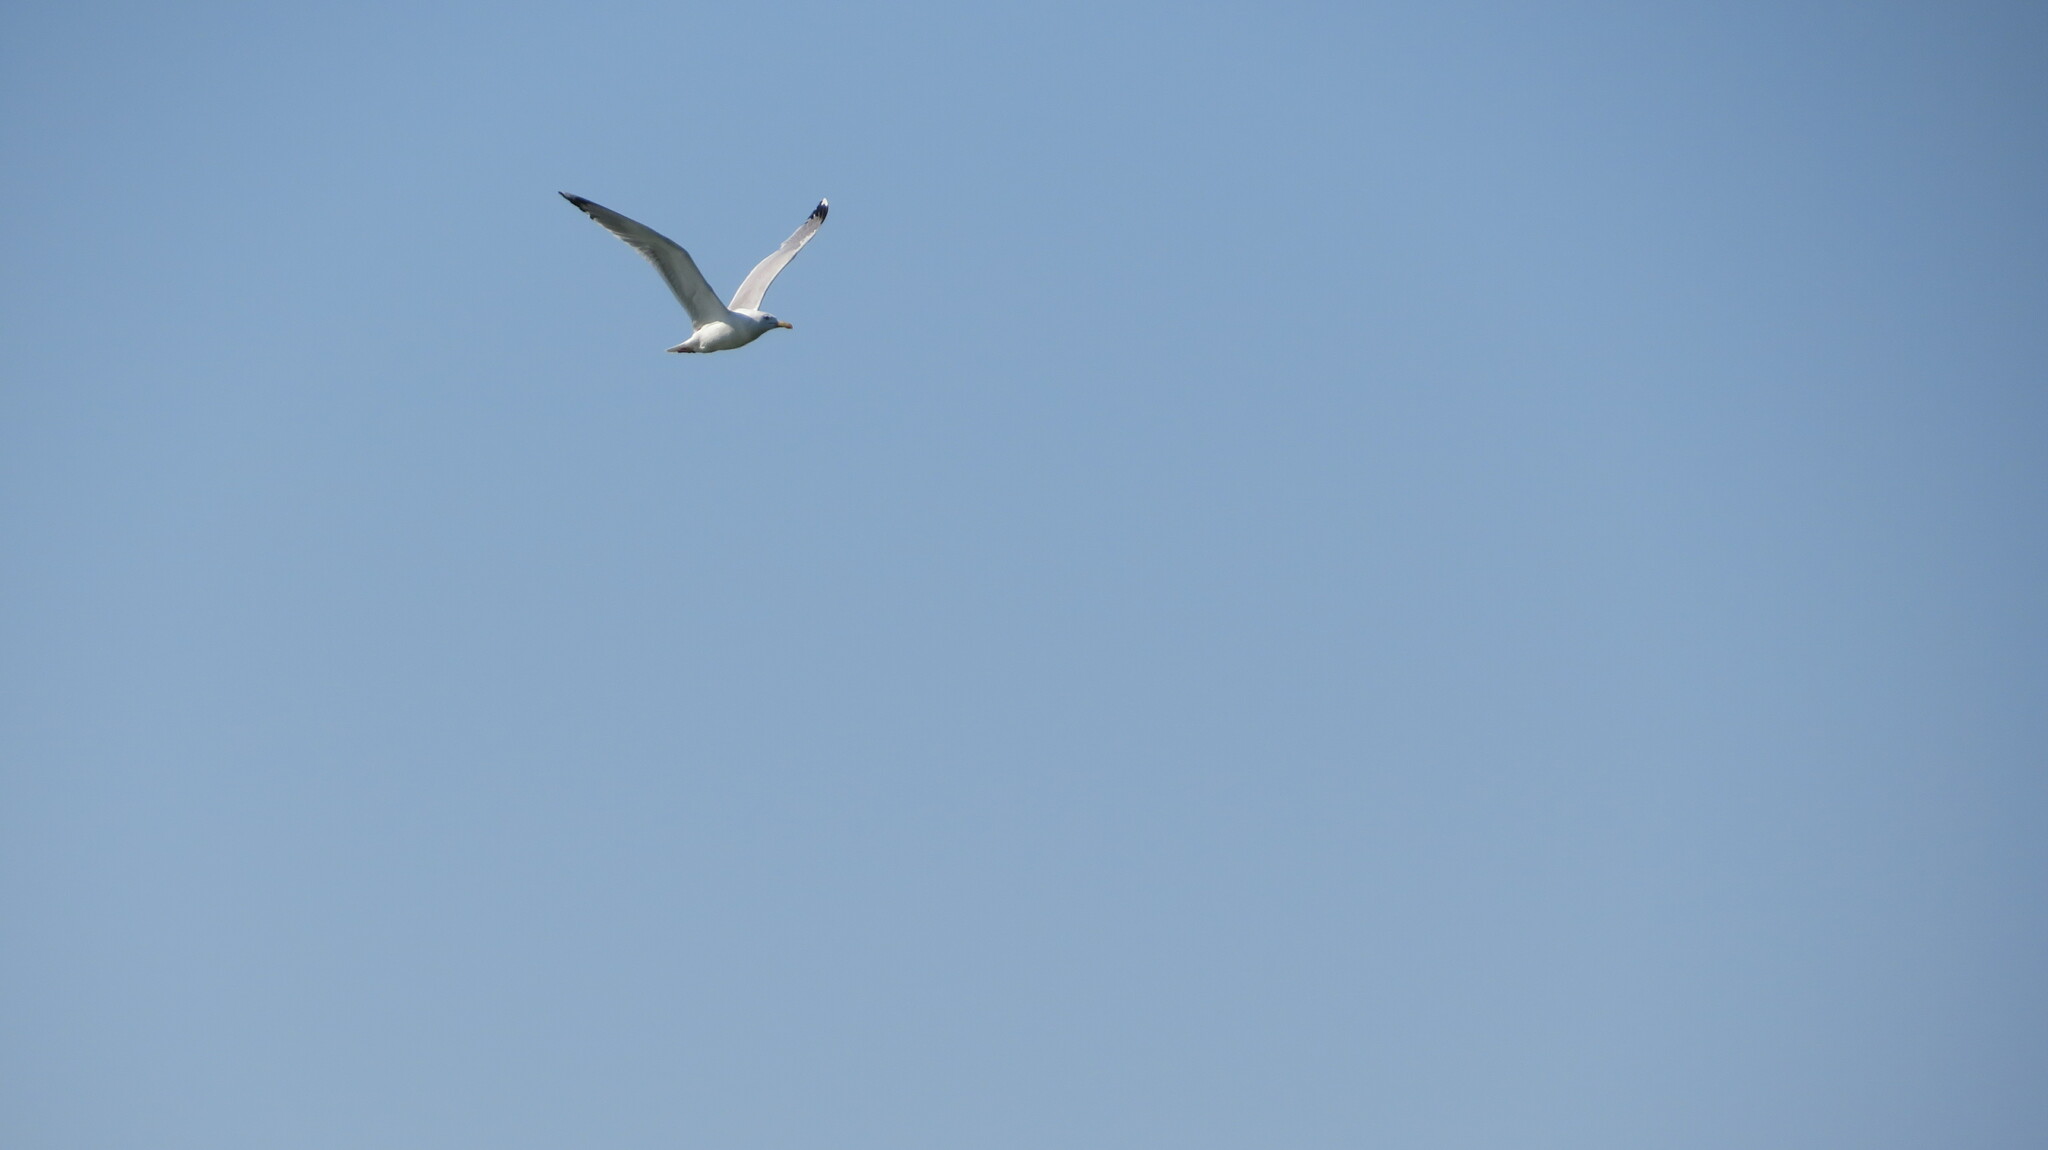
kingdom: Animalia
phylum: Chordata
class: Aves
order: Charadriiformes
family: Laridae
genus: Larus
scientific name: Larus cachinnans
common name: Caspian gull
